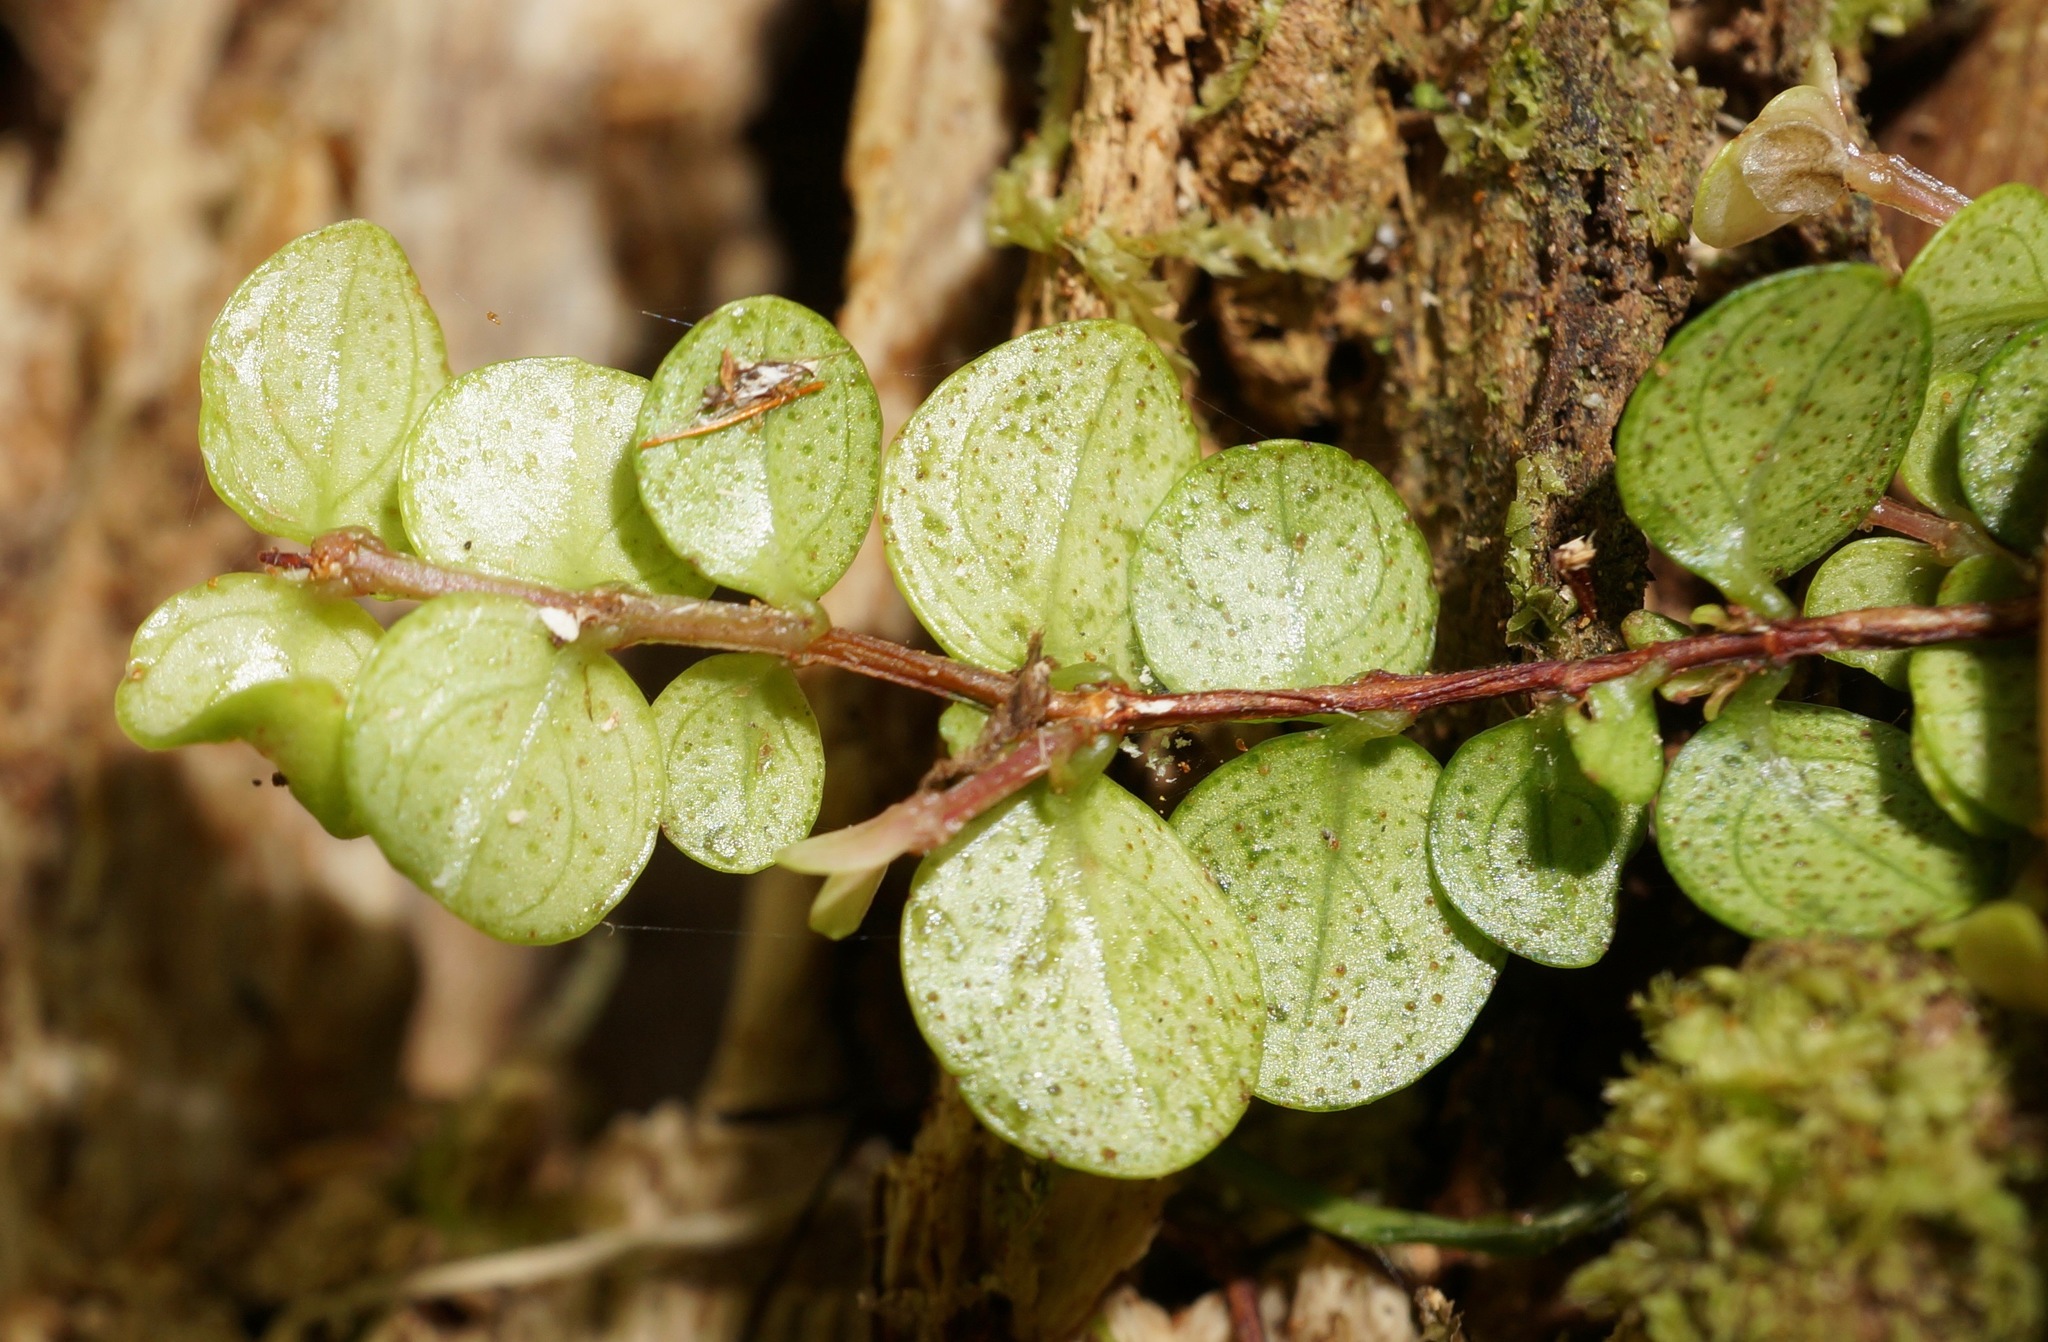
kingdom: Plantae
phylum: Tracheophyta
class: Magnoliopsida
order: Myrtales
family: Myrtaceae
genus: Metrosideros
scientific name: Metrosideros perforata
